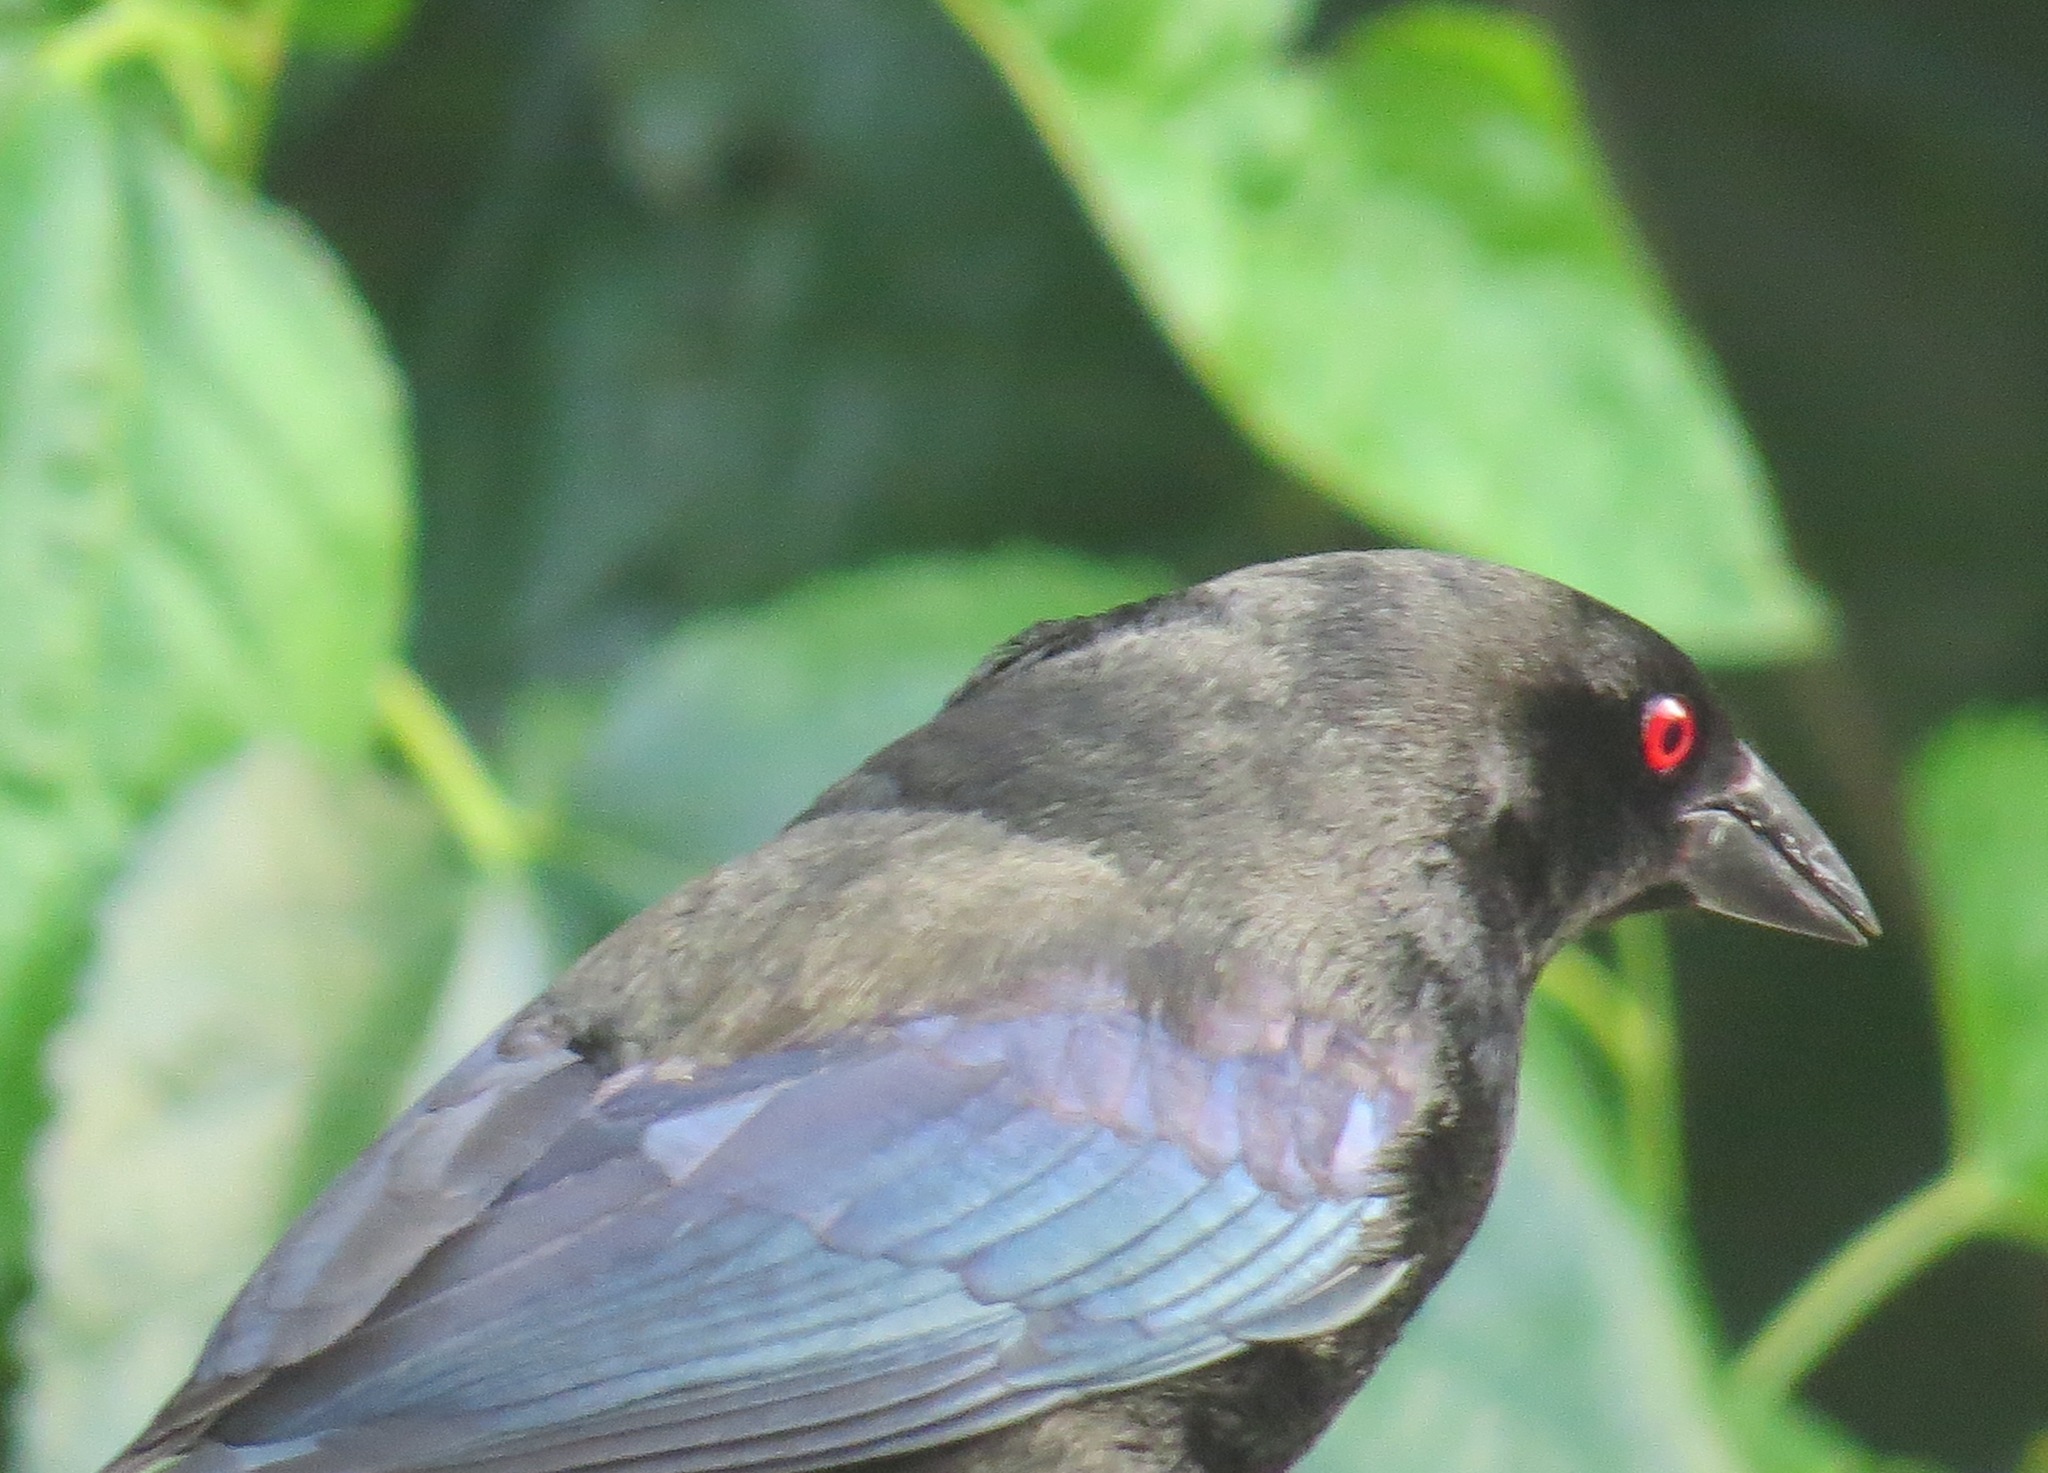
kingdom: Animalia
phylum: Chordata
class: Aves
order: Passeriformes
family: Icteridae
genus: Molothrus
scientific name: Molothrus aeneus
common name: Bronzed cowbird
